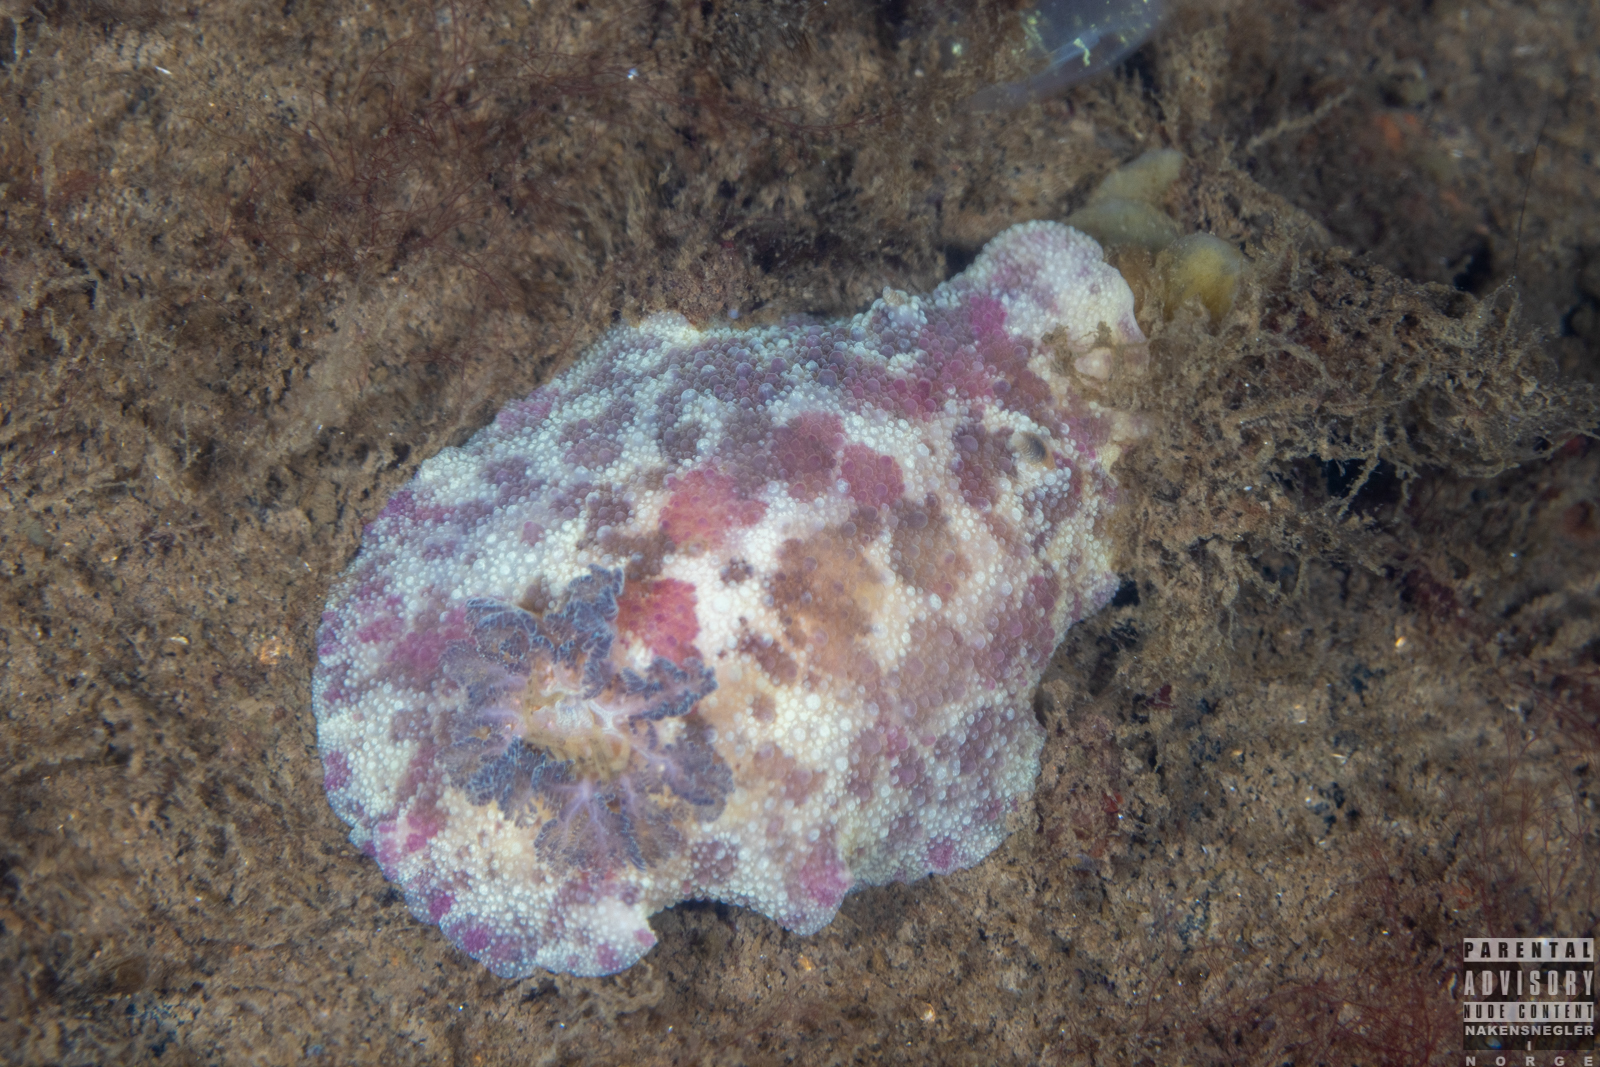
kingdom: Animalia
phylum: Mollusca
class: Gastropoda
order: Nudibranchia
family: Dorididae
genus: Doris
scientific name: Doris pseudoargus
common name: Sea lemon
